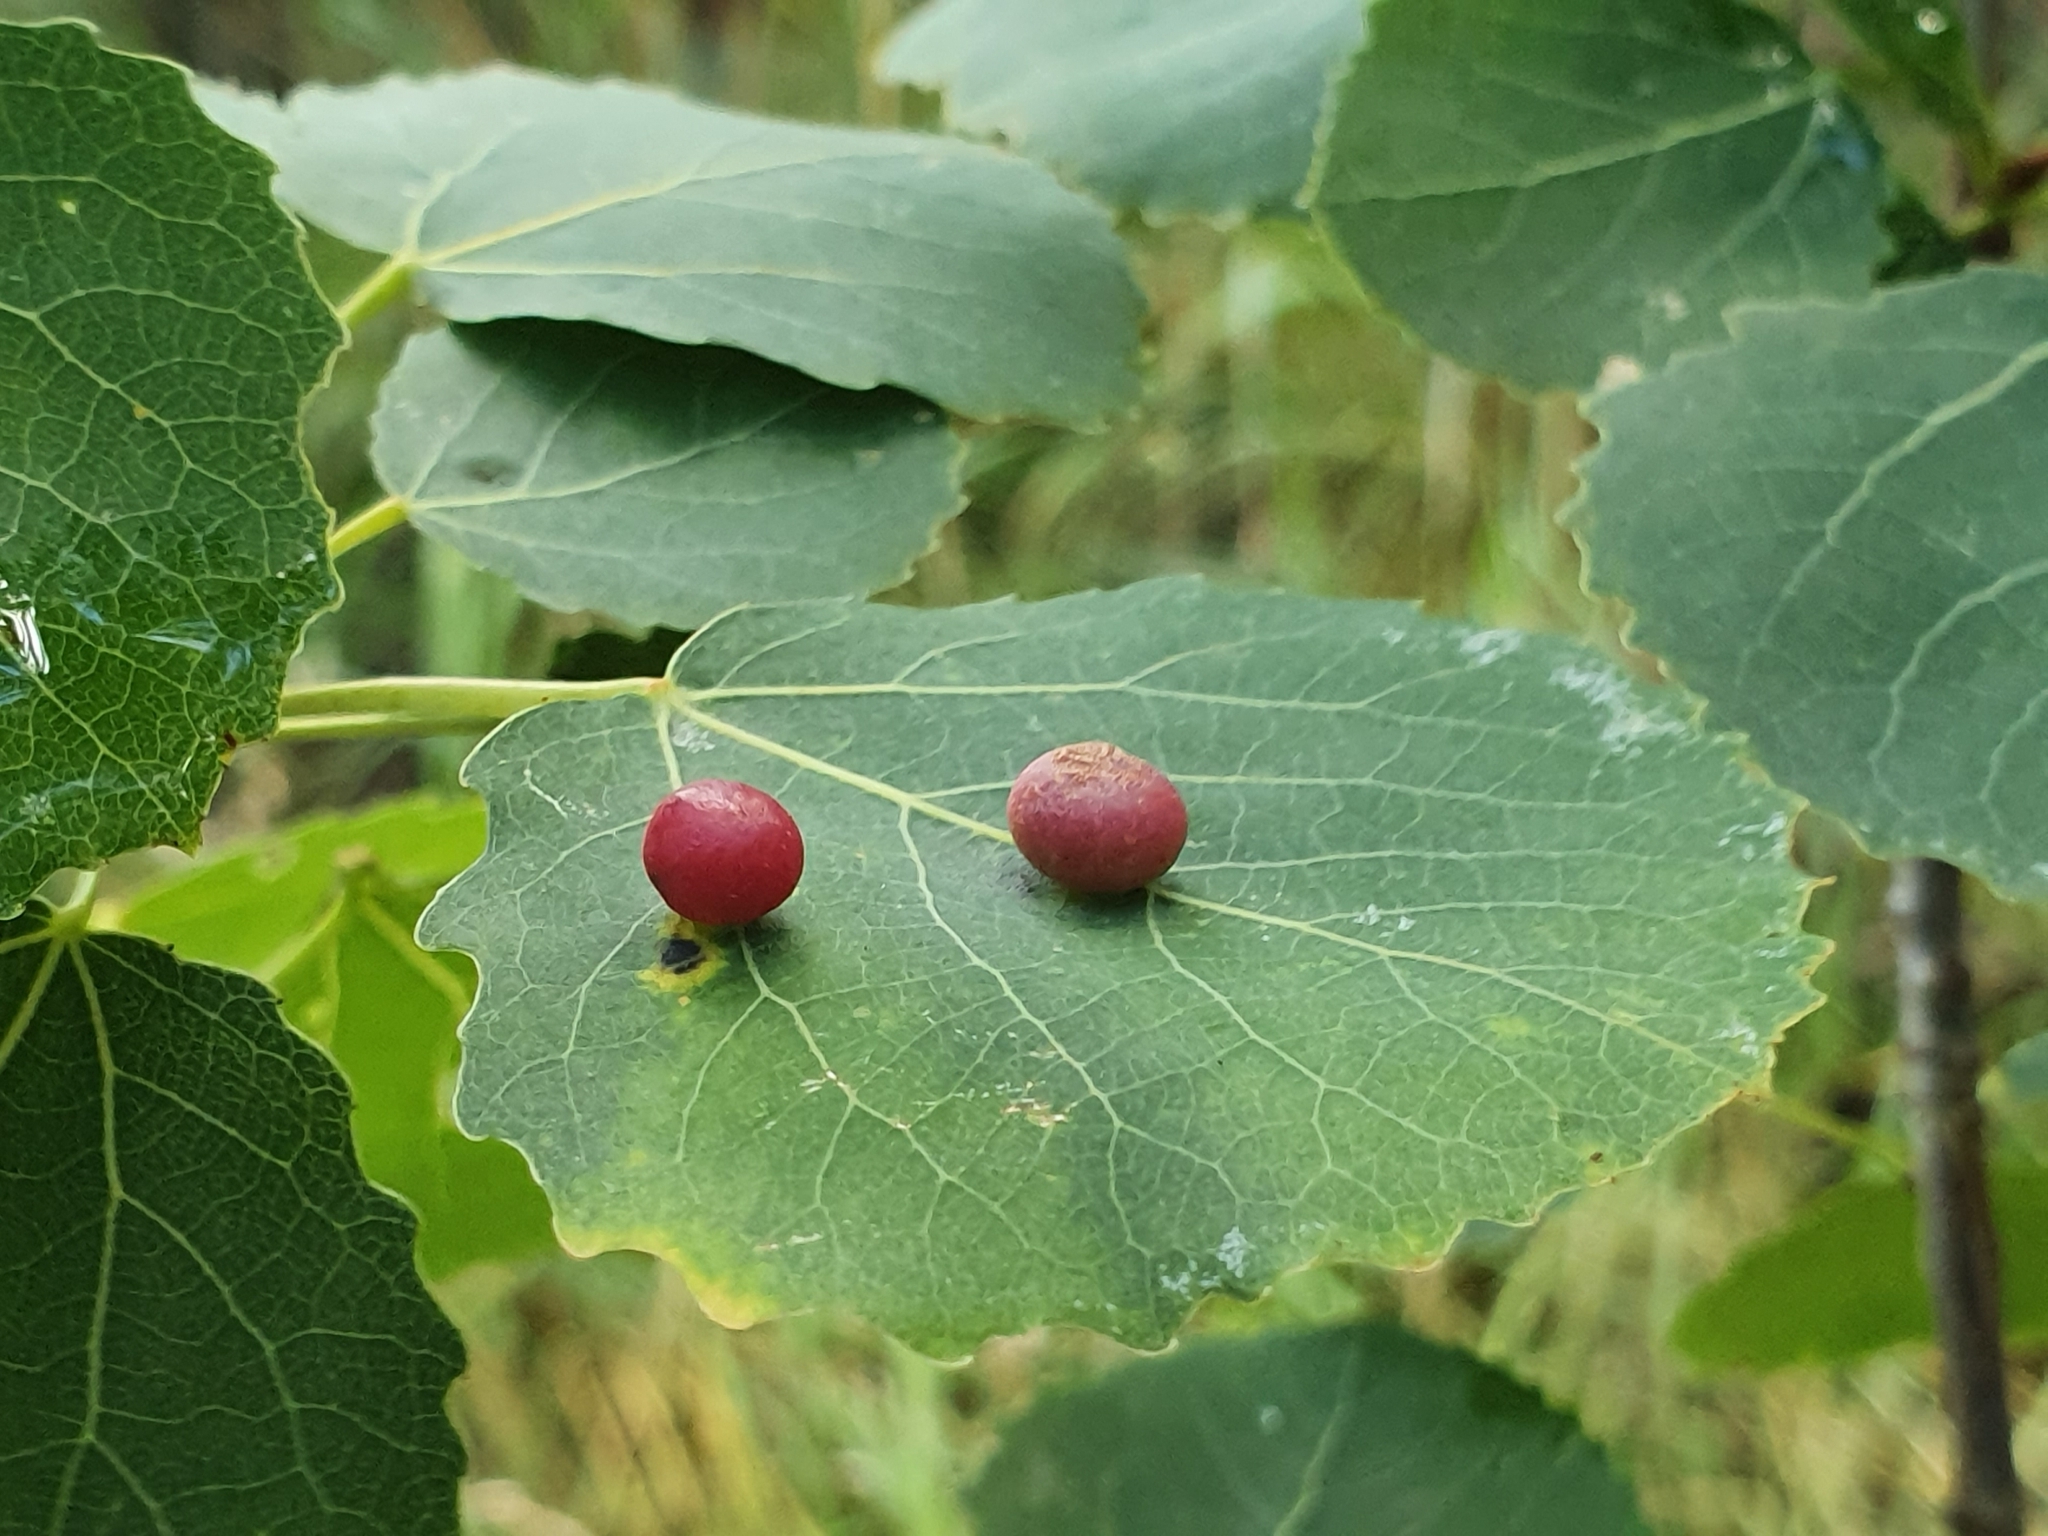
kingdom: Animalia
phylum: Arthropoda
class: Insecta
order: Diptera
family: Cecidomyiidae
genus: Harmandiola
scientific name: Harmandiola tremulae
